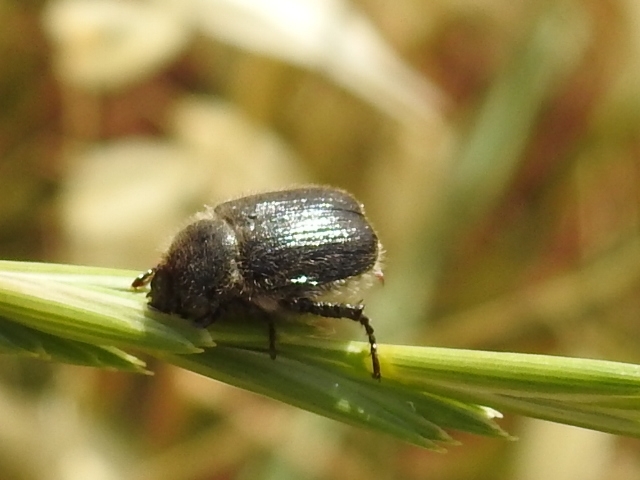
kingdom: Animalia
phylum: Arthropoda
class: Insecta
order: Coleoptera
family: Scarabaeidae
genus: Exomala
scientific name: Exomala leonii
